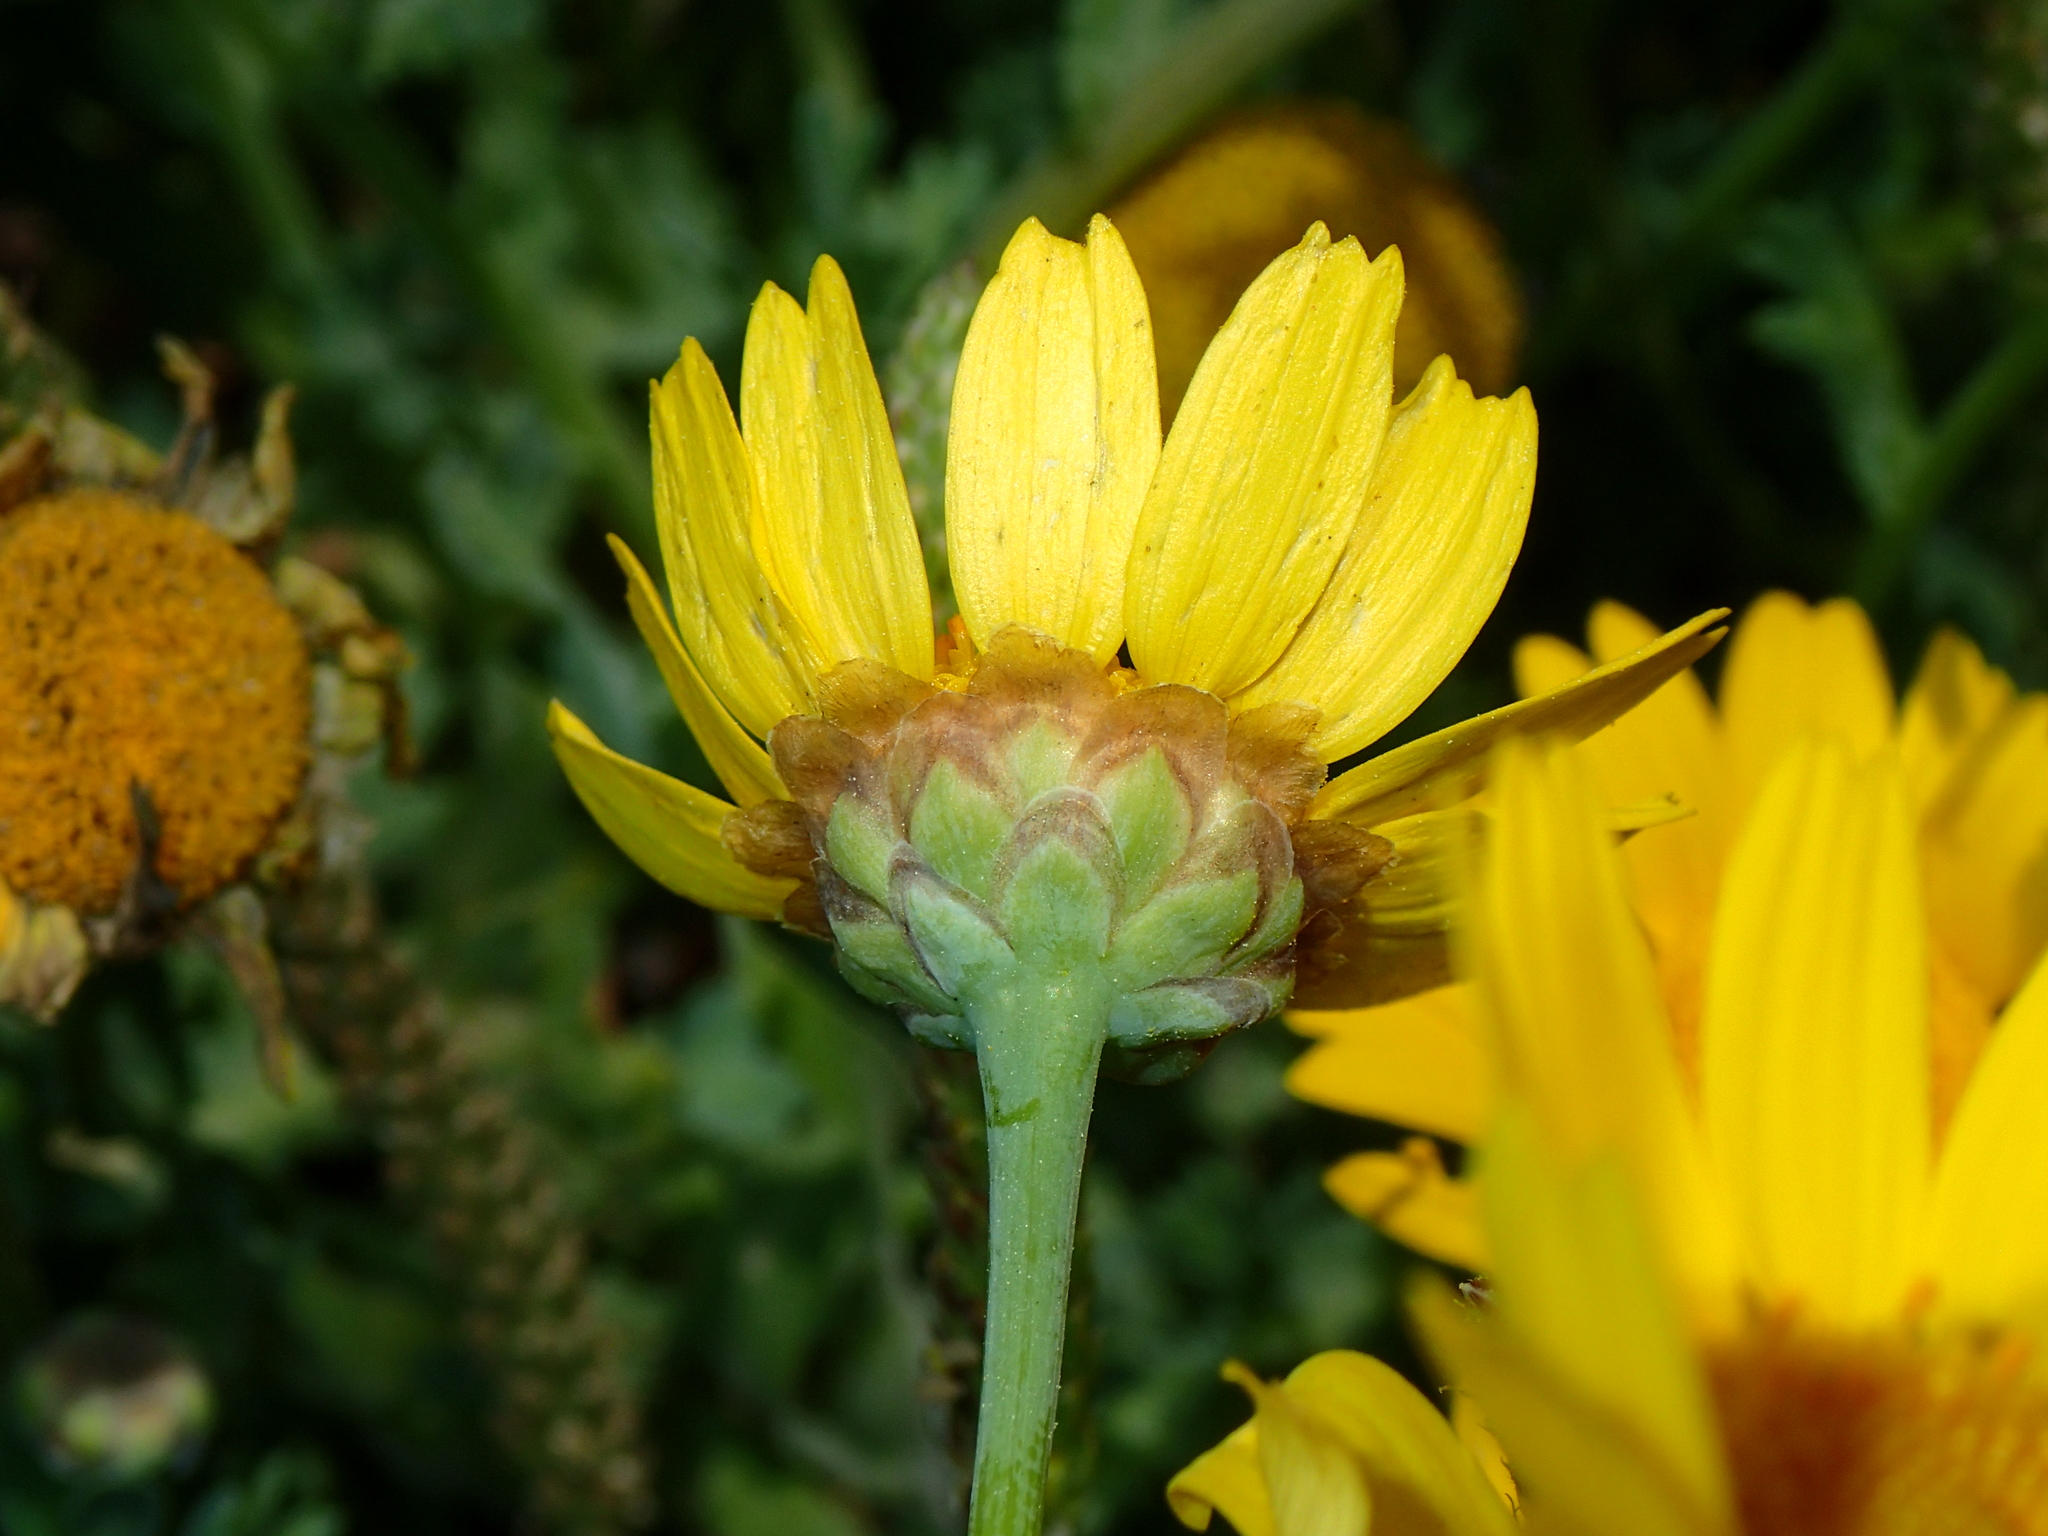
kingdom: Plantae
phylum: Tracheophyta
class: Magnoliopsida
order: Asterales
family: Asteraceae
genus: Glebionis
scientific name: Glebionis segetum
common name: Corndaisy
